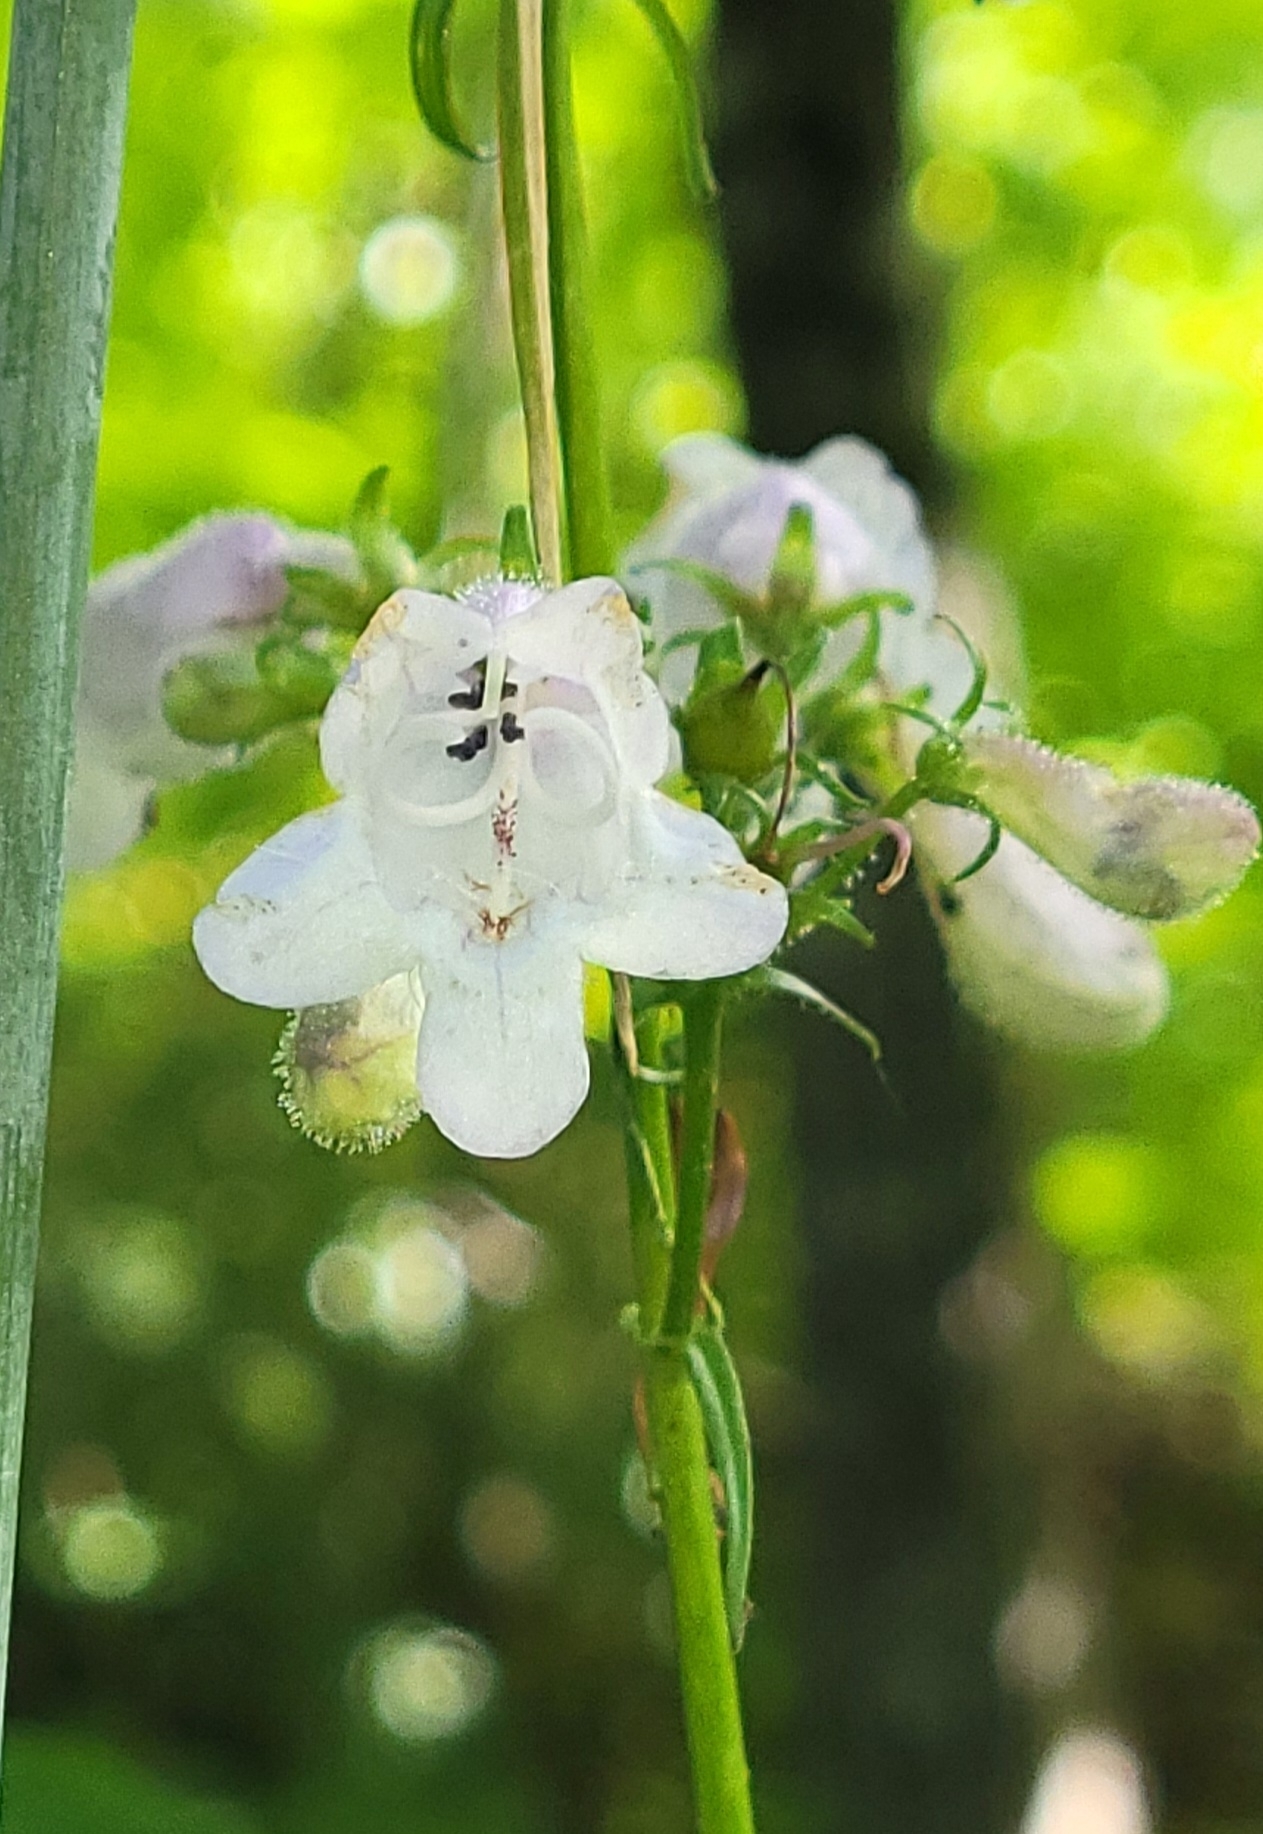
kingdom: Plantae
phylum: Tracheophyta
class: Magnoliopsida
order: Lamiales
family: Plantaginaceae
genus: Penstemon
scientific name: Penstemon digitalis
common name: Foxglove beardtongue
